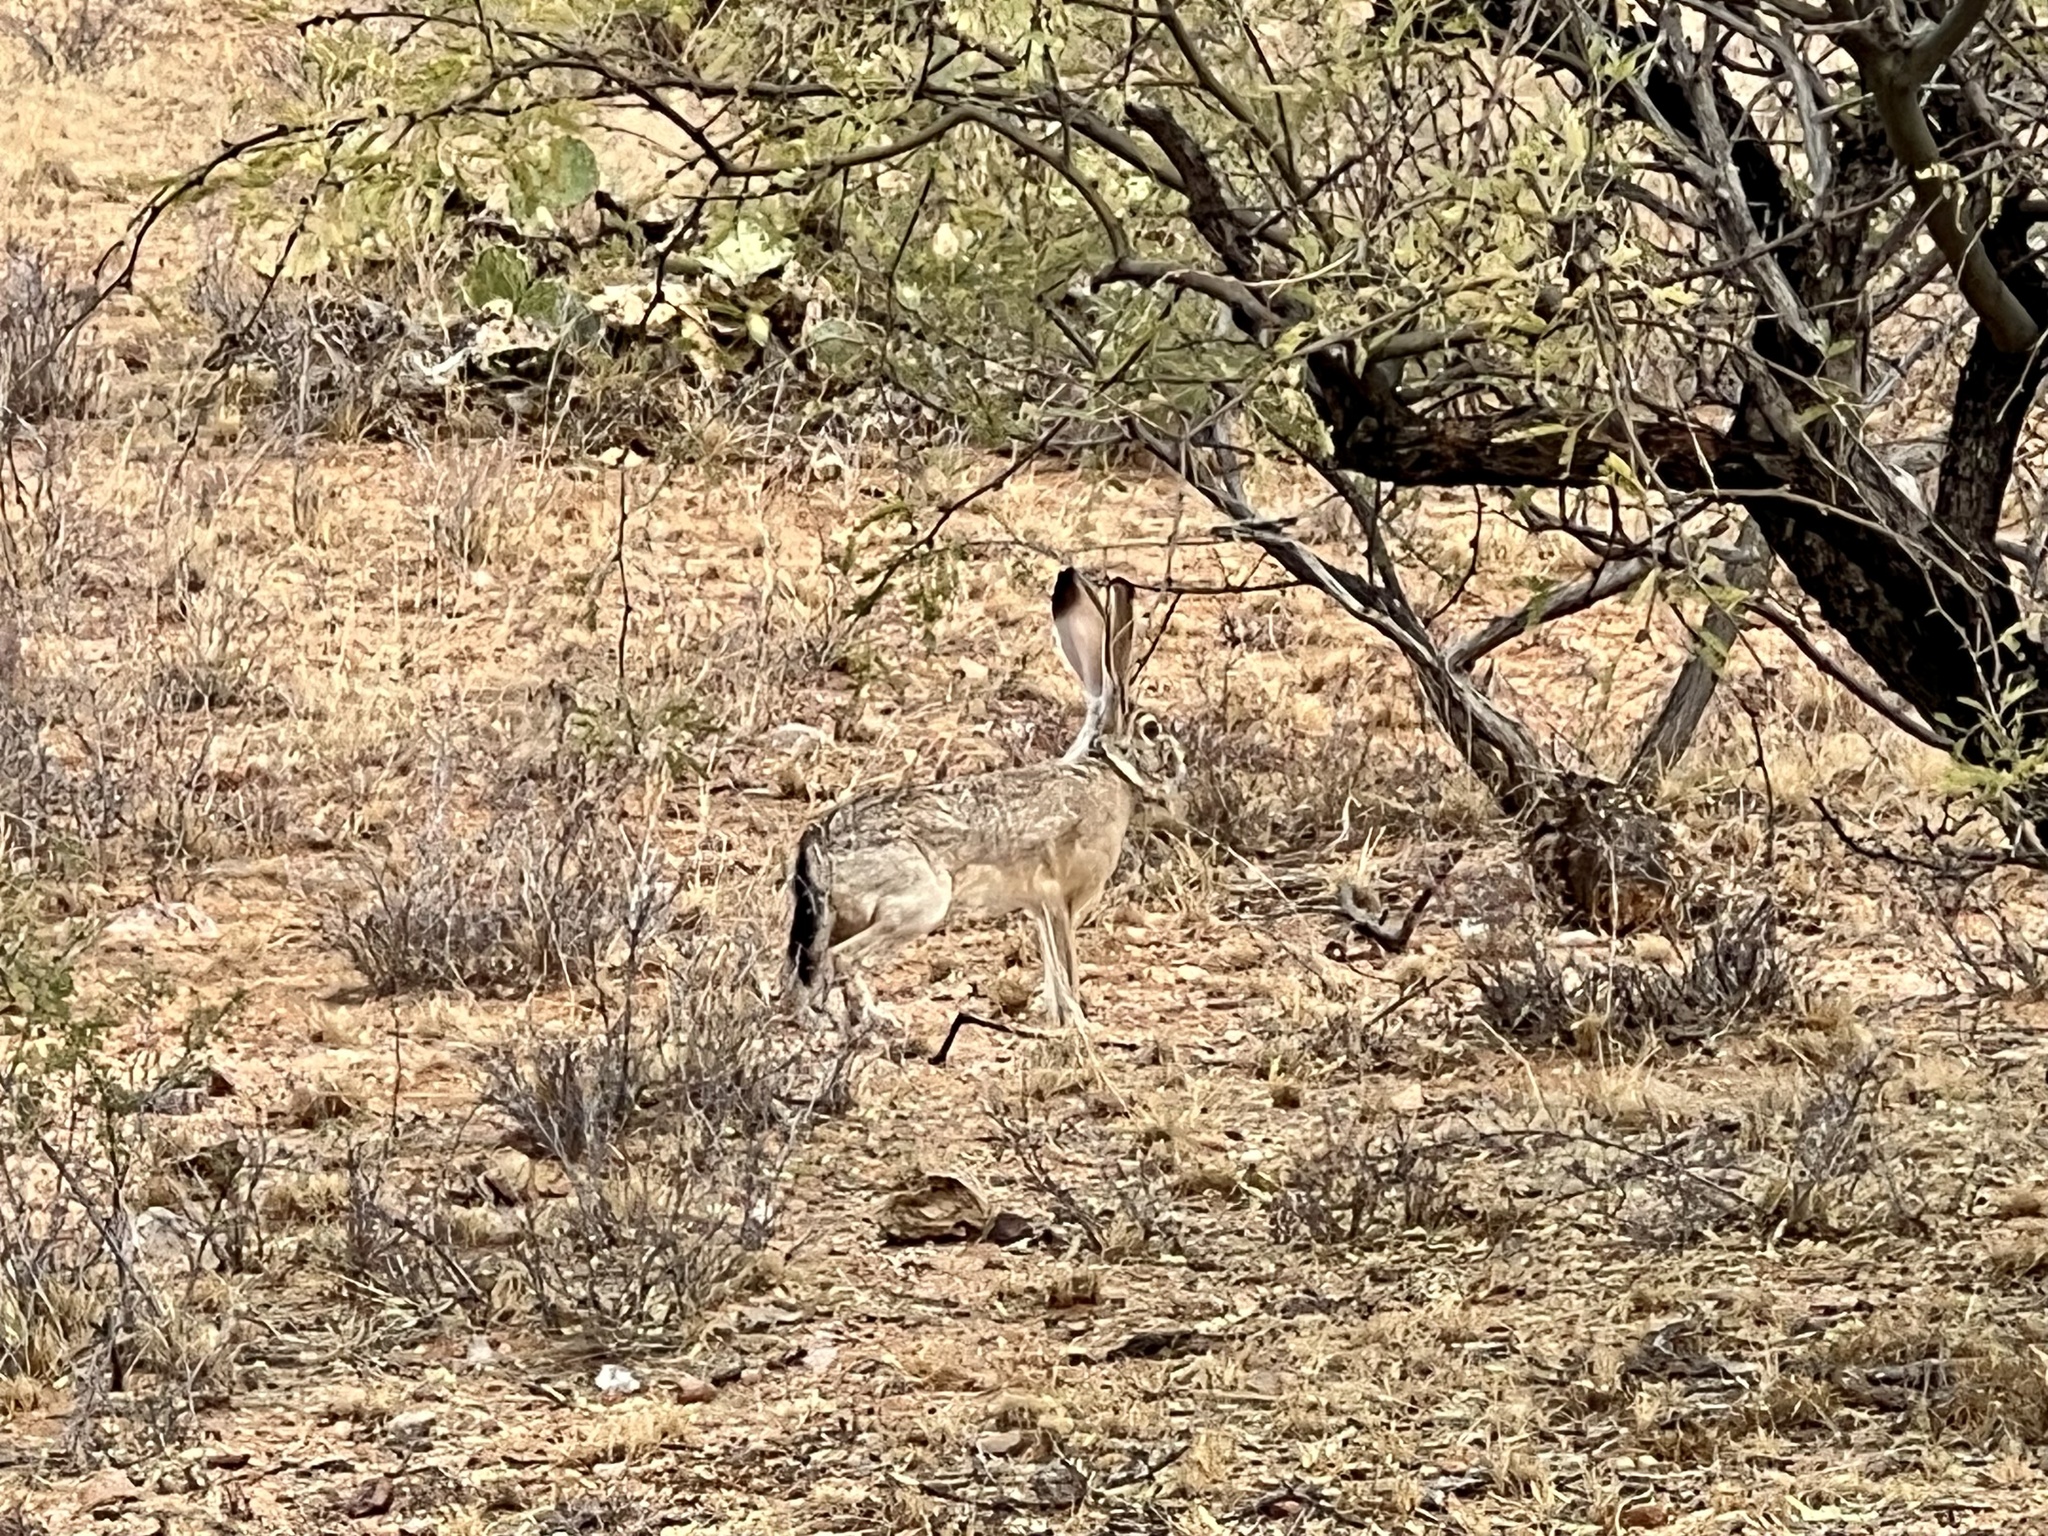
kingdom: Animalia
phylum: Chordata
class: Mammalia
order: Lagomorpha
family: Leporidae
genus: Lepus
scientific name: Lepus californicus
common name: Black-tailed jackrabbit
